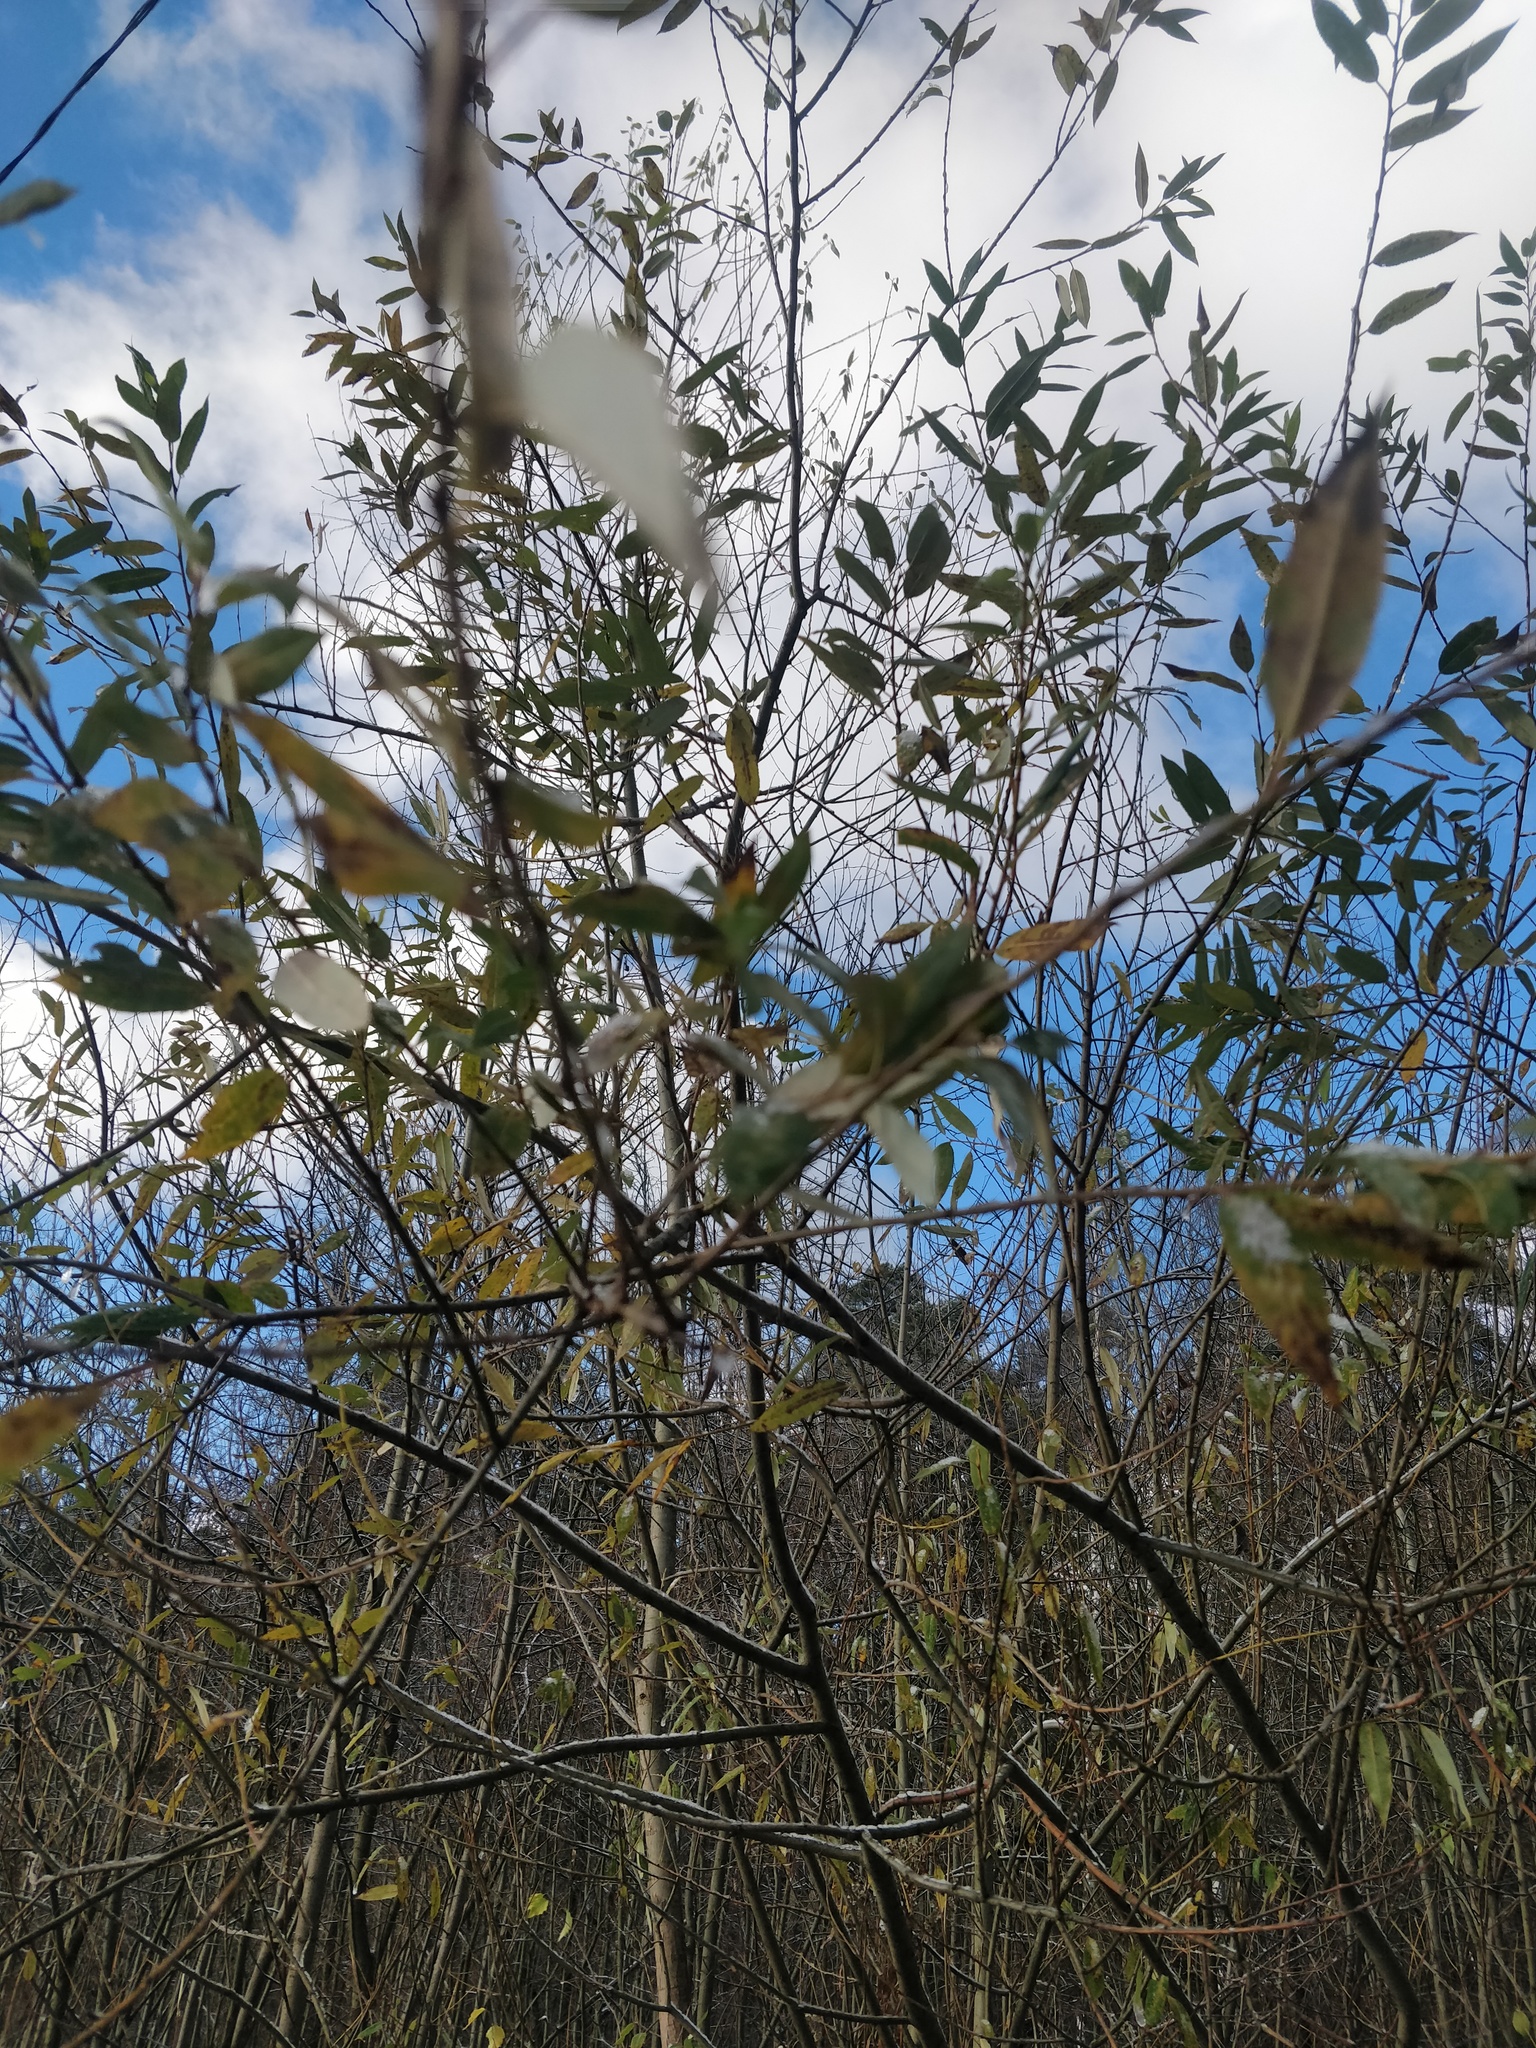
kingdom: Plantae
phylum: Tracheophyta
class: Magnoliopsida
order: Malpighiales
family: Salicaceae
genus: Salix
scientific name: Salix triandra
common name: Almond willow
